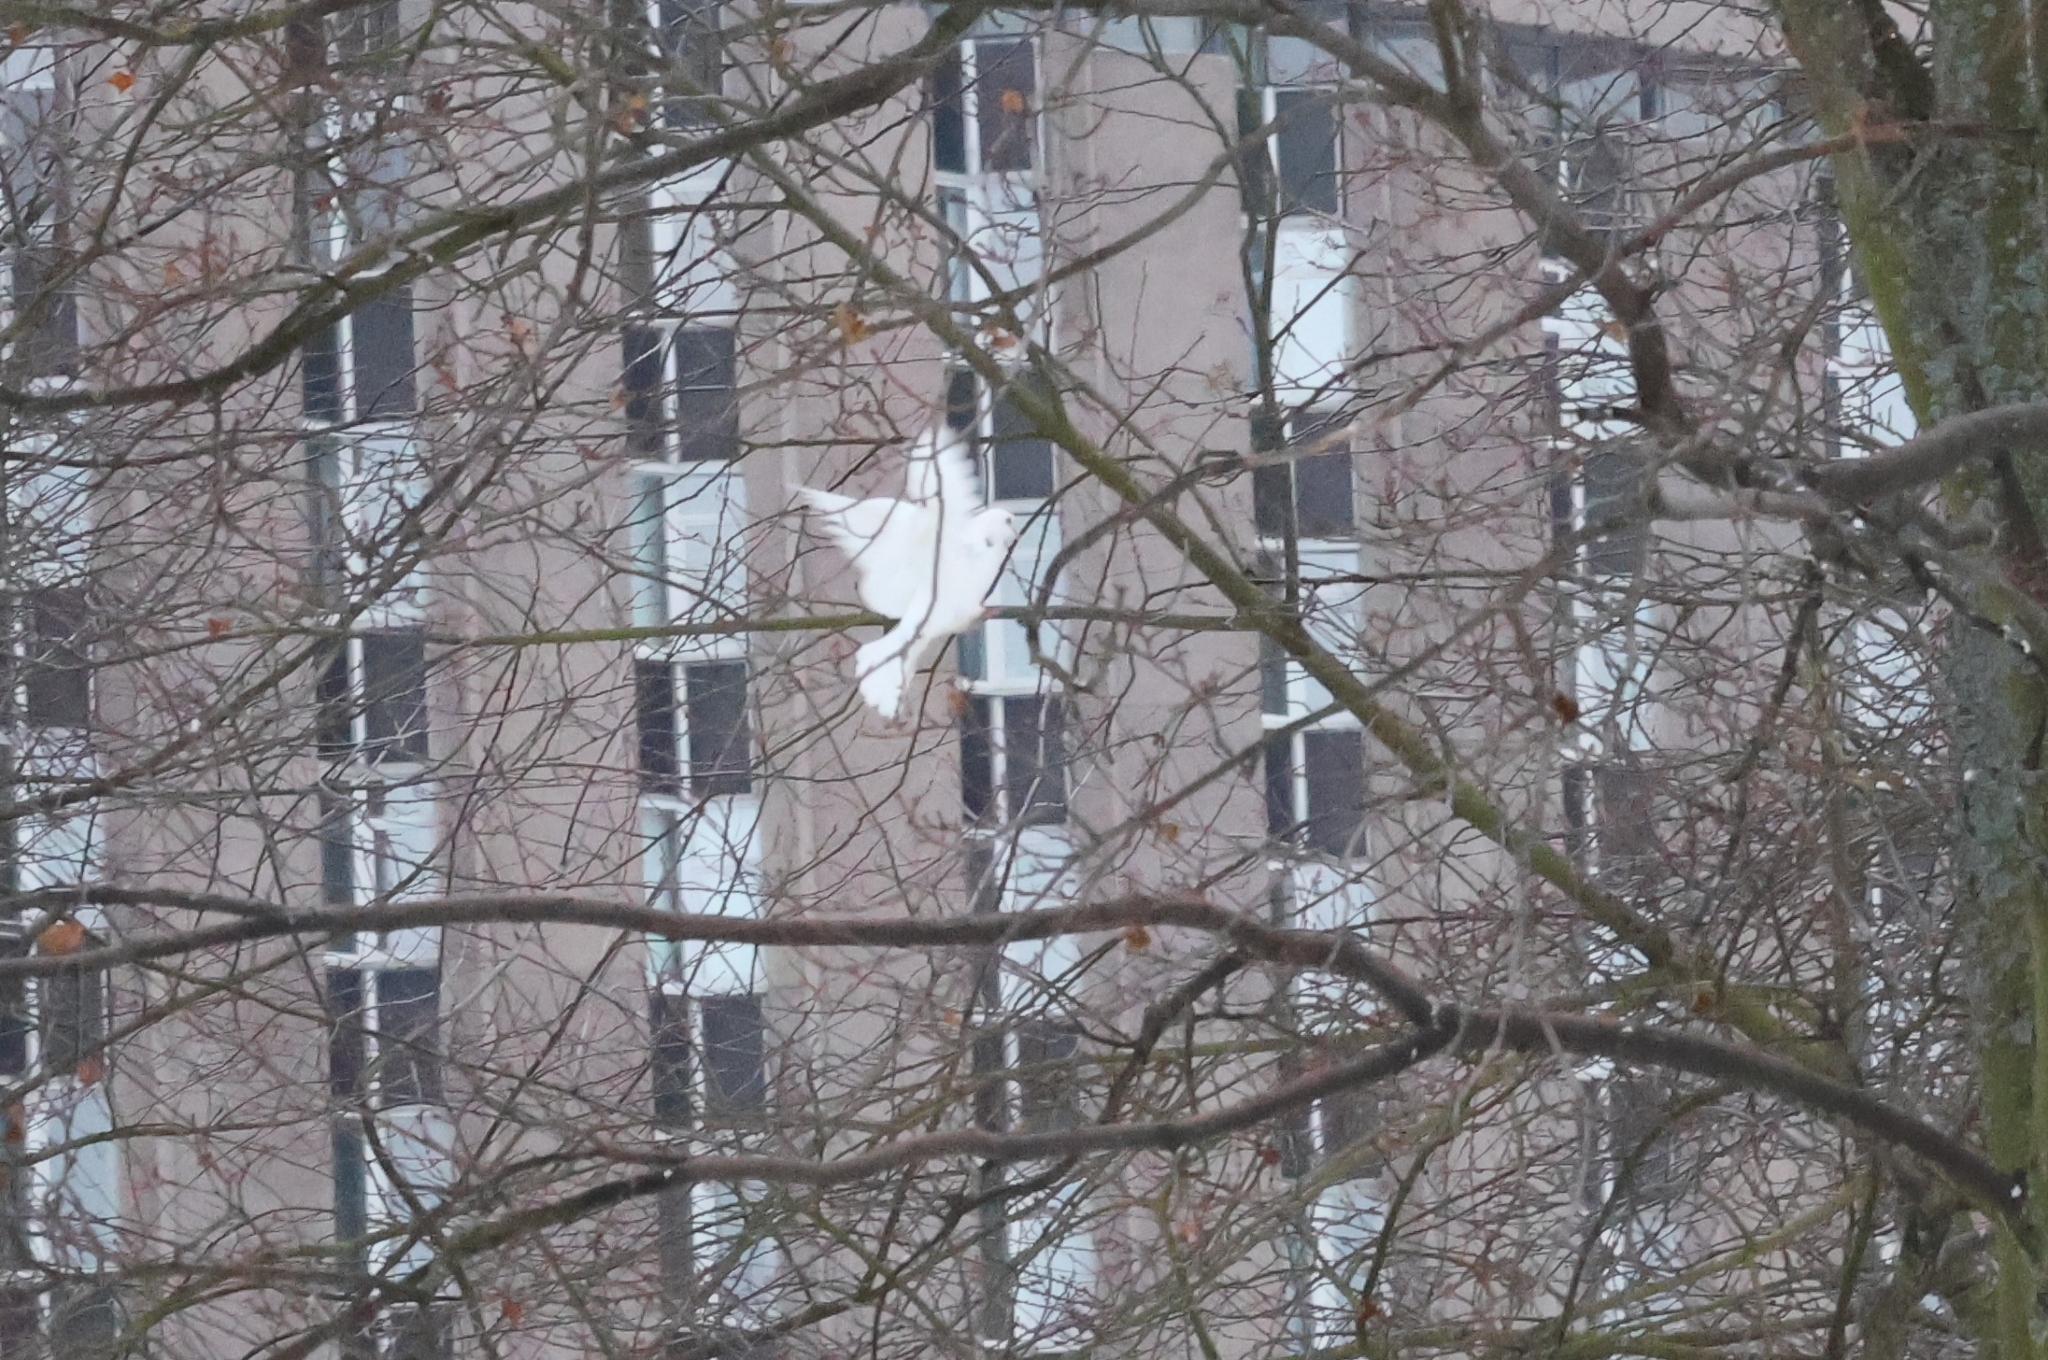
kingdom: Animalia
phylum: Chordata
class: Aves
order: Columbiformes
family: Columbidae
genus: Columba
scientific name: Columba livia
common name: Rock pigeon
